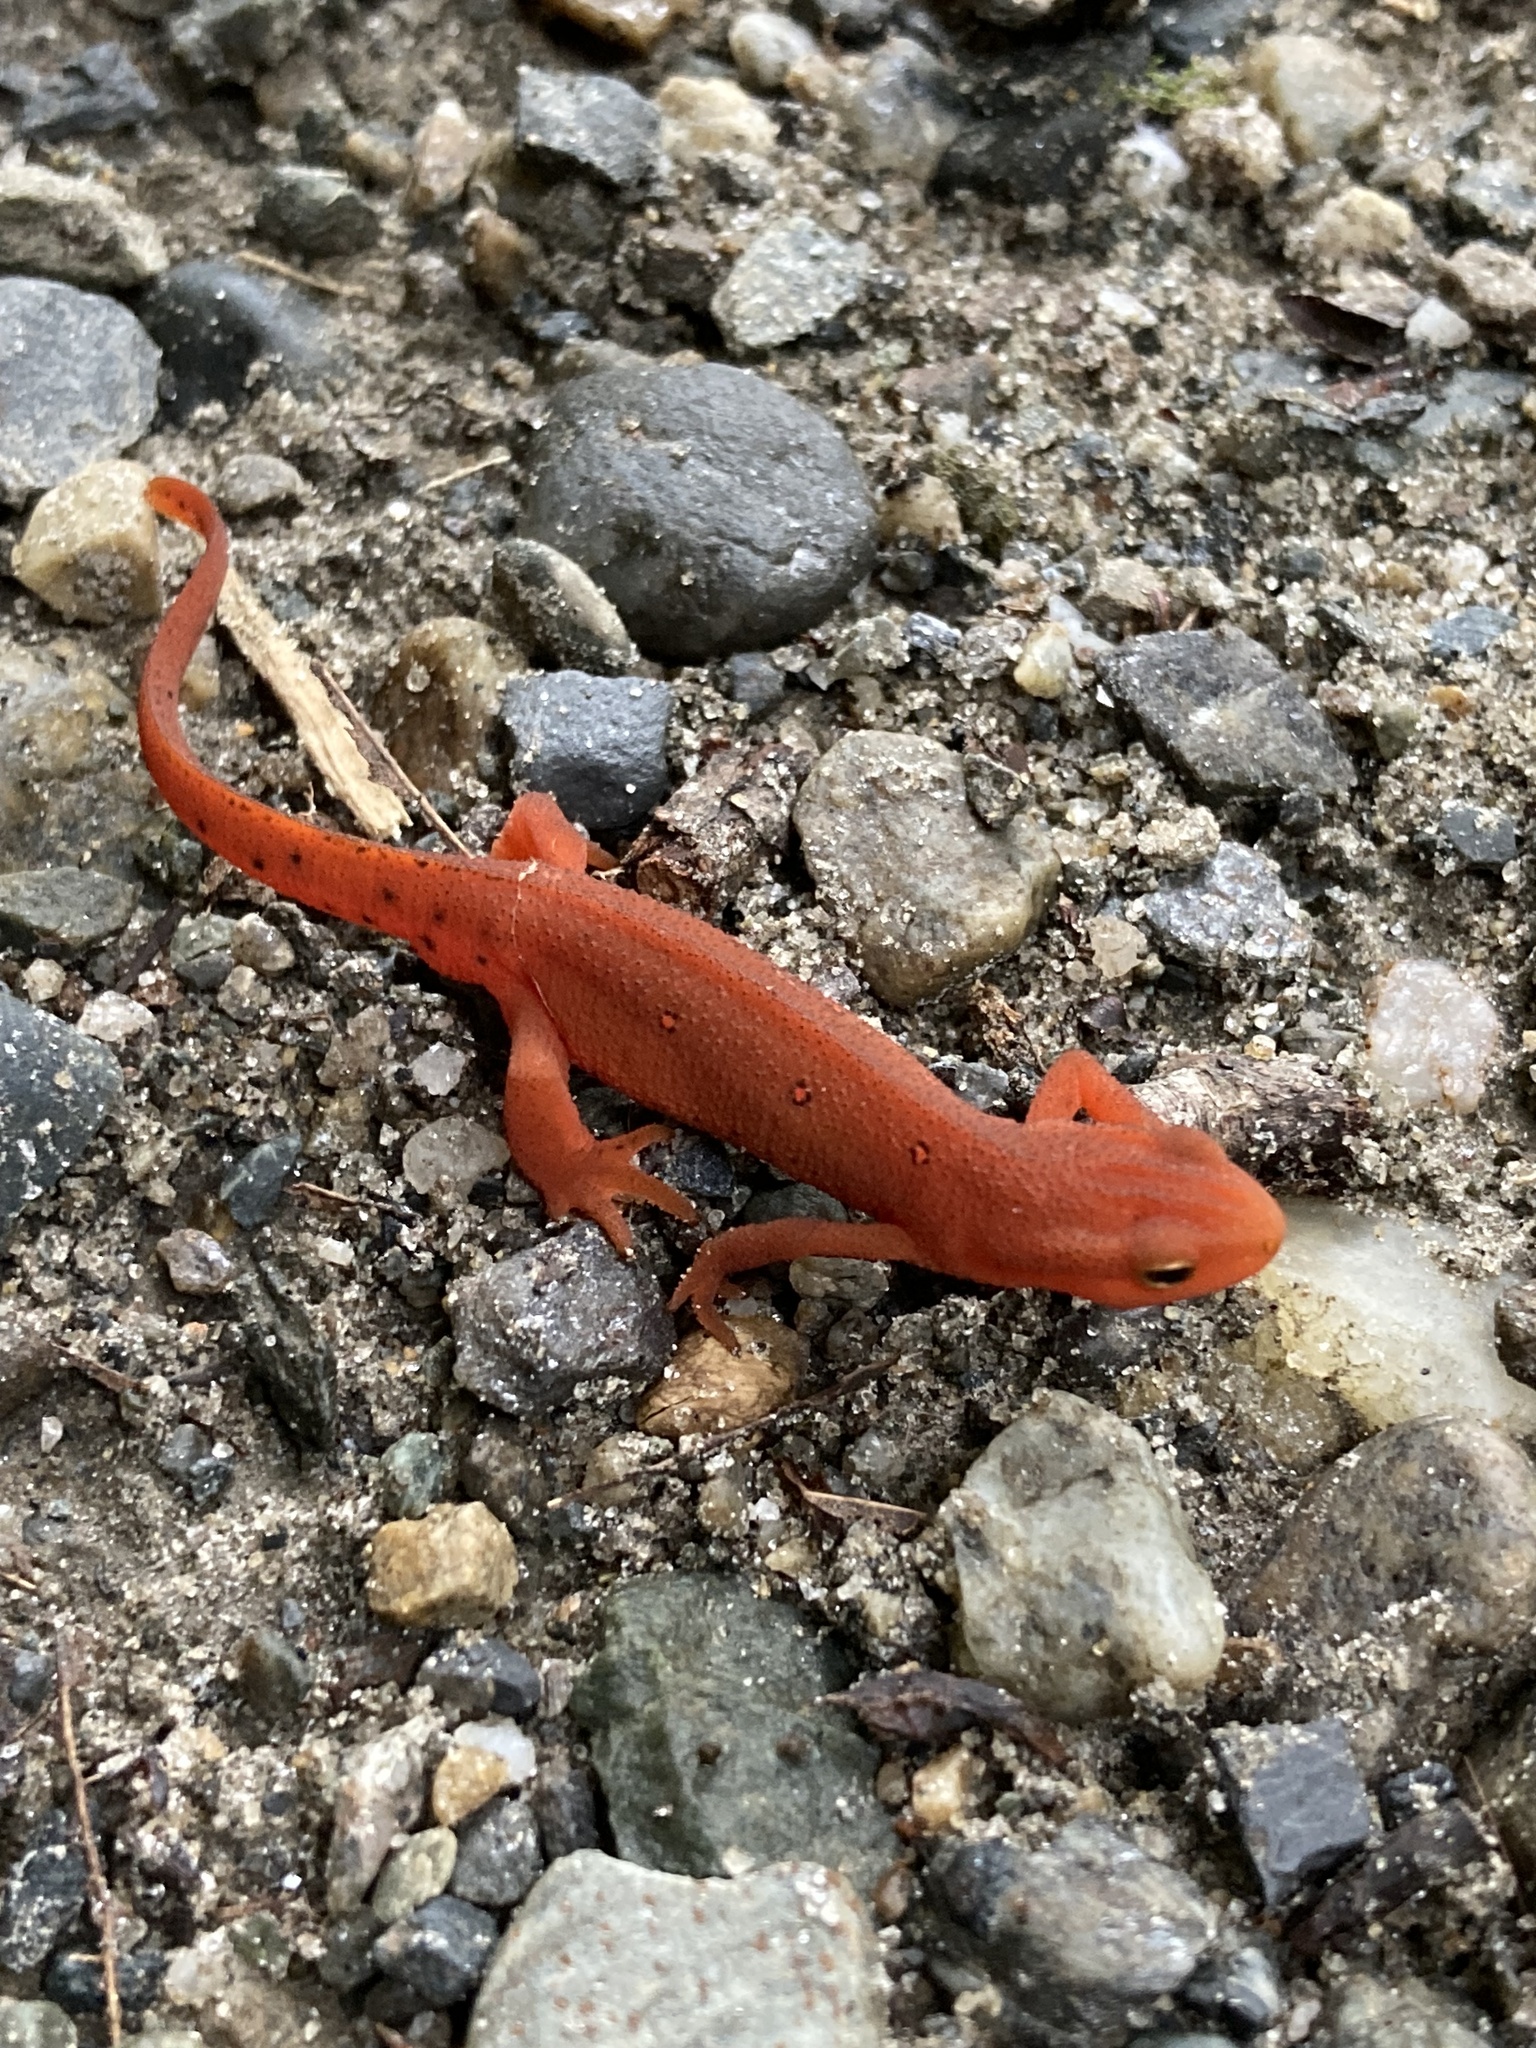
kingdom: Animalia
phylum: Chordata
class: Amphibia
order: Caudata
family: Salamandridae
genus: Notophthalmus
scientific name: Notophthalmus viridescens
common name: Eastern newt
